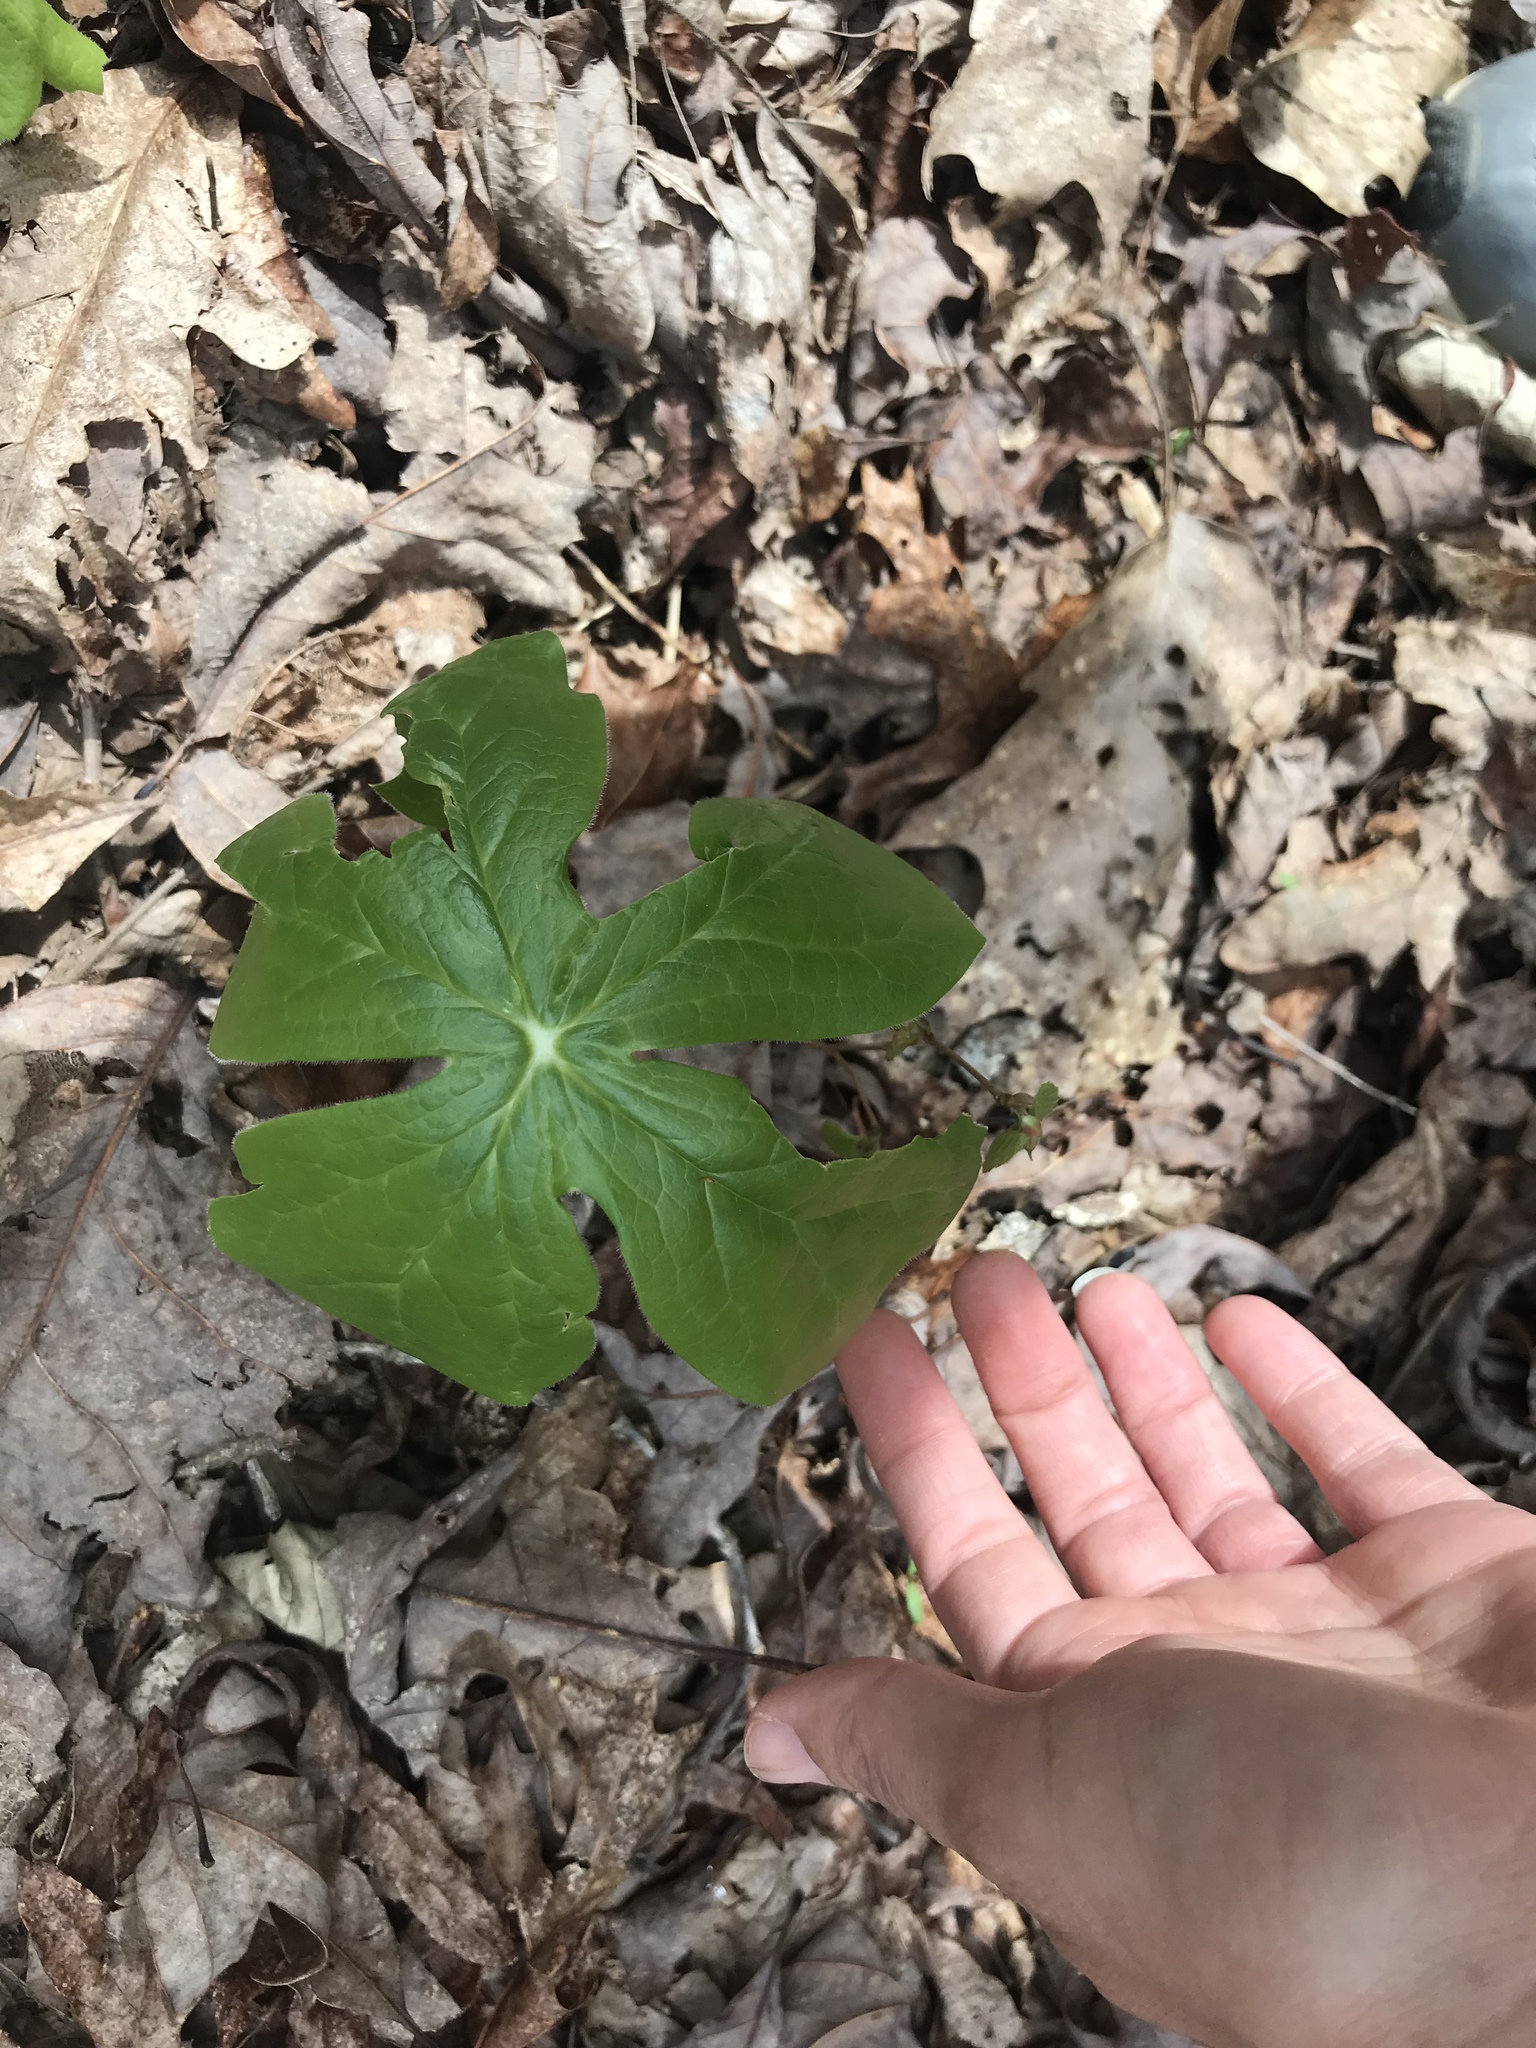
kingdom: Plantae
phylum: Tracheophyta
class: Magnoliopsida
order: Ranunculales
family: Berberidaceae
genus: Podophyllum
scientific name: Podophyllum peltatum
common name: Wild mandrake
